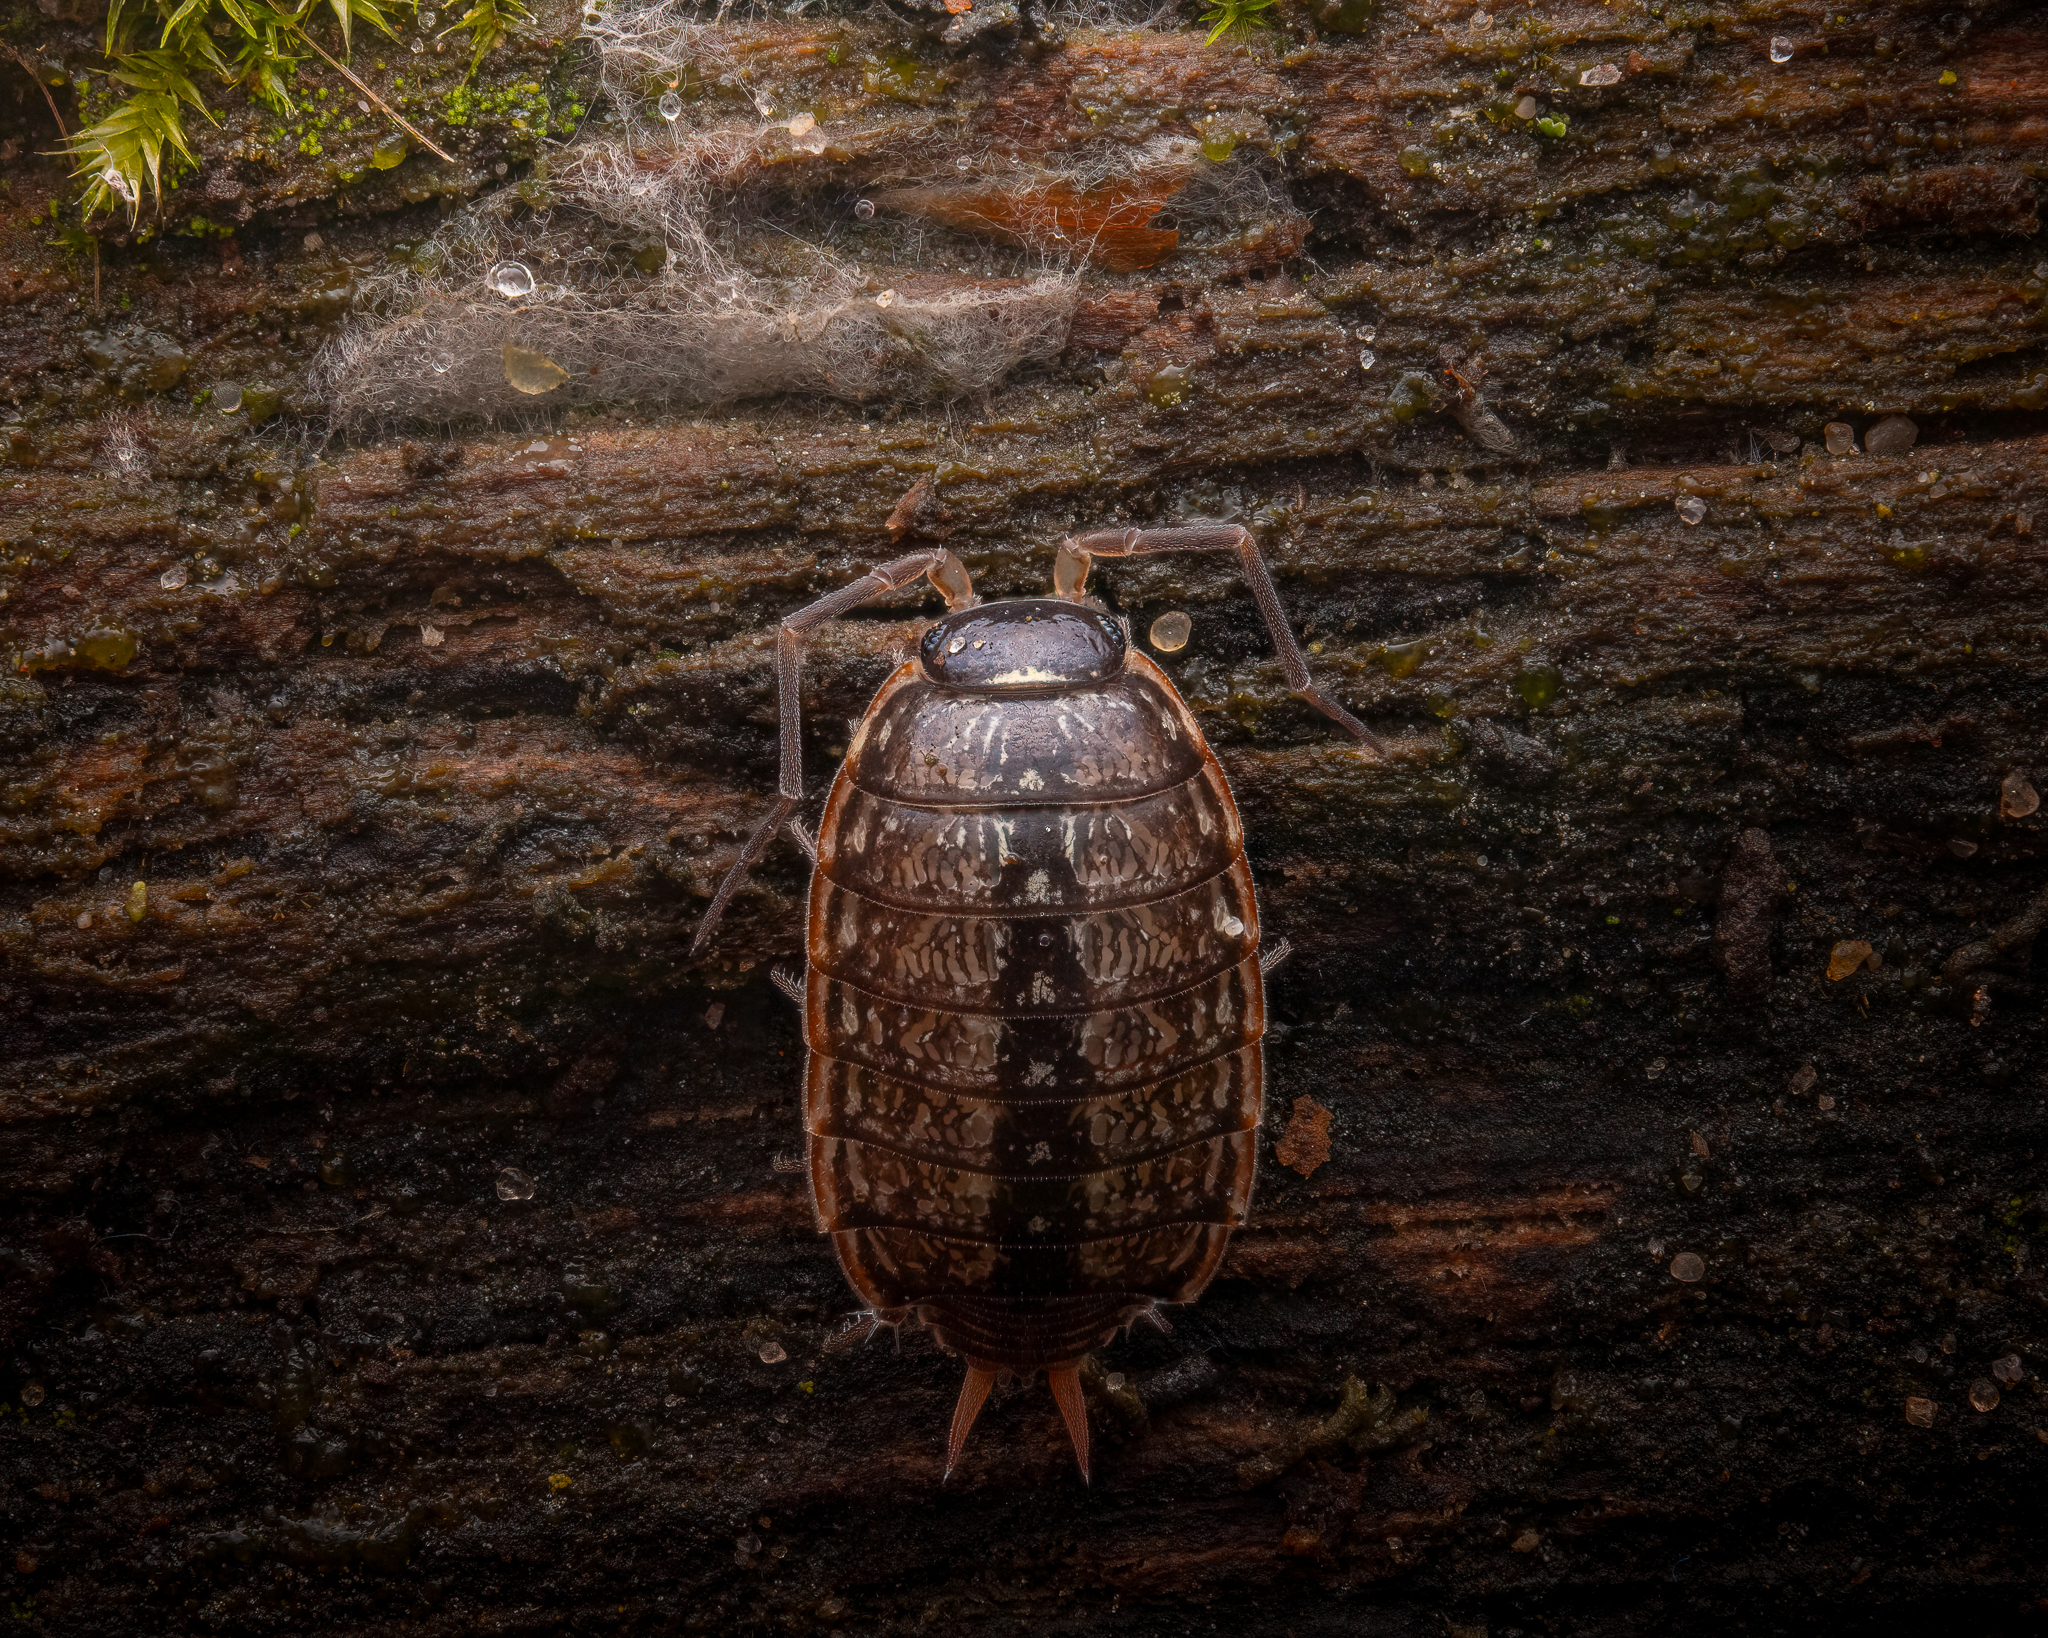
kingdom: Animalia
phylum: Arthropoda
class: Malacostraca
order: Isopoda
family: Philosciidae
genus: Philoscia
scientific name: Philoscia muscorum
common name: Common striped woodlouse
